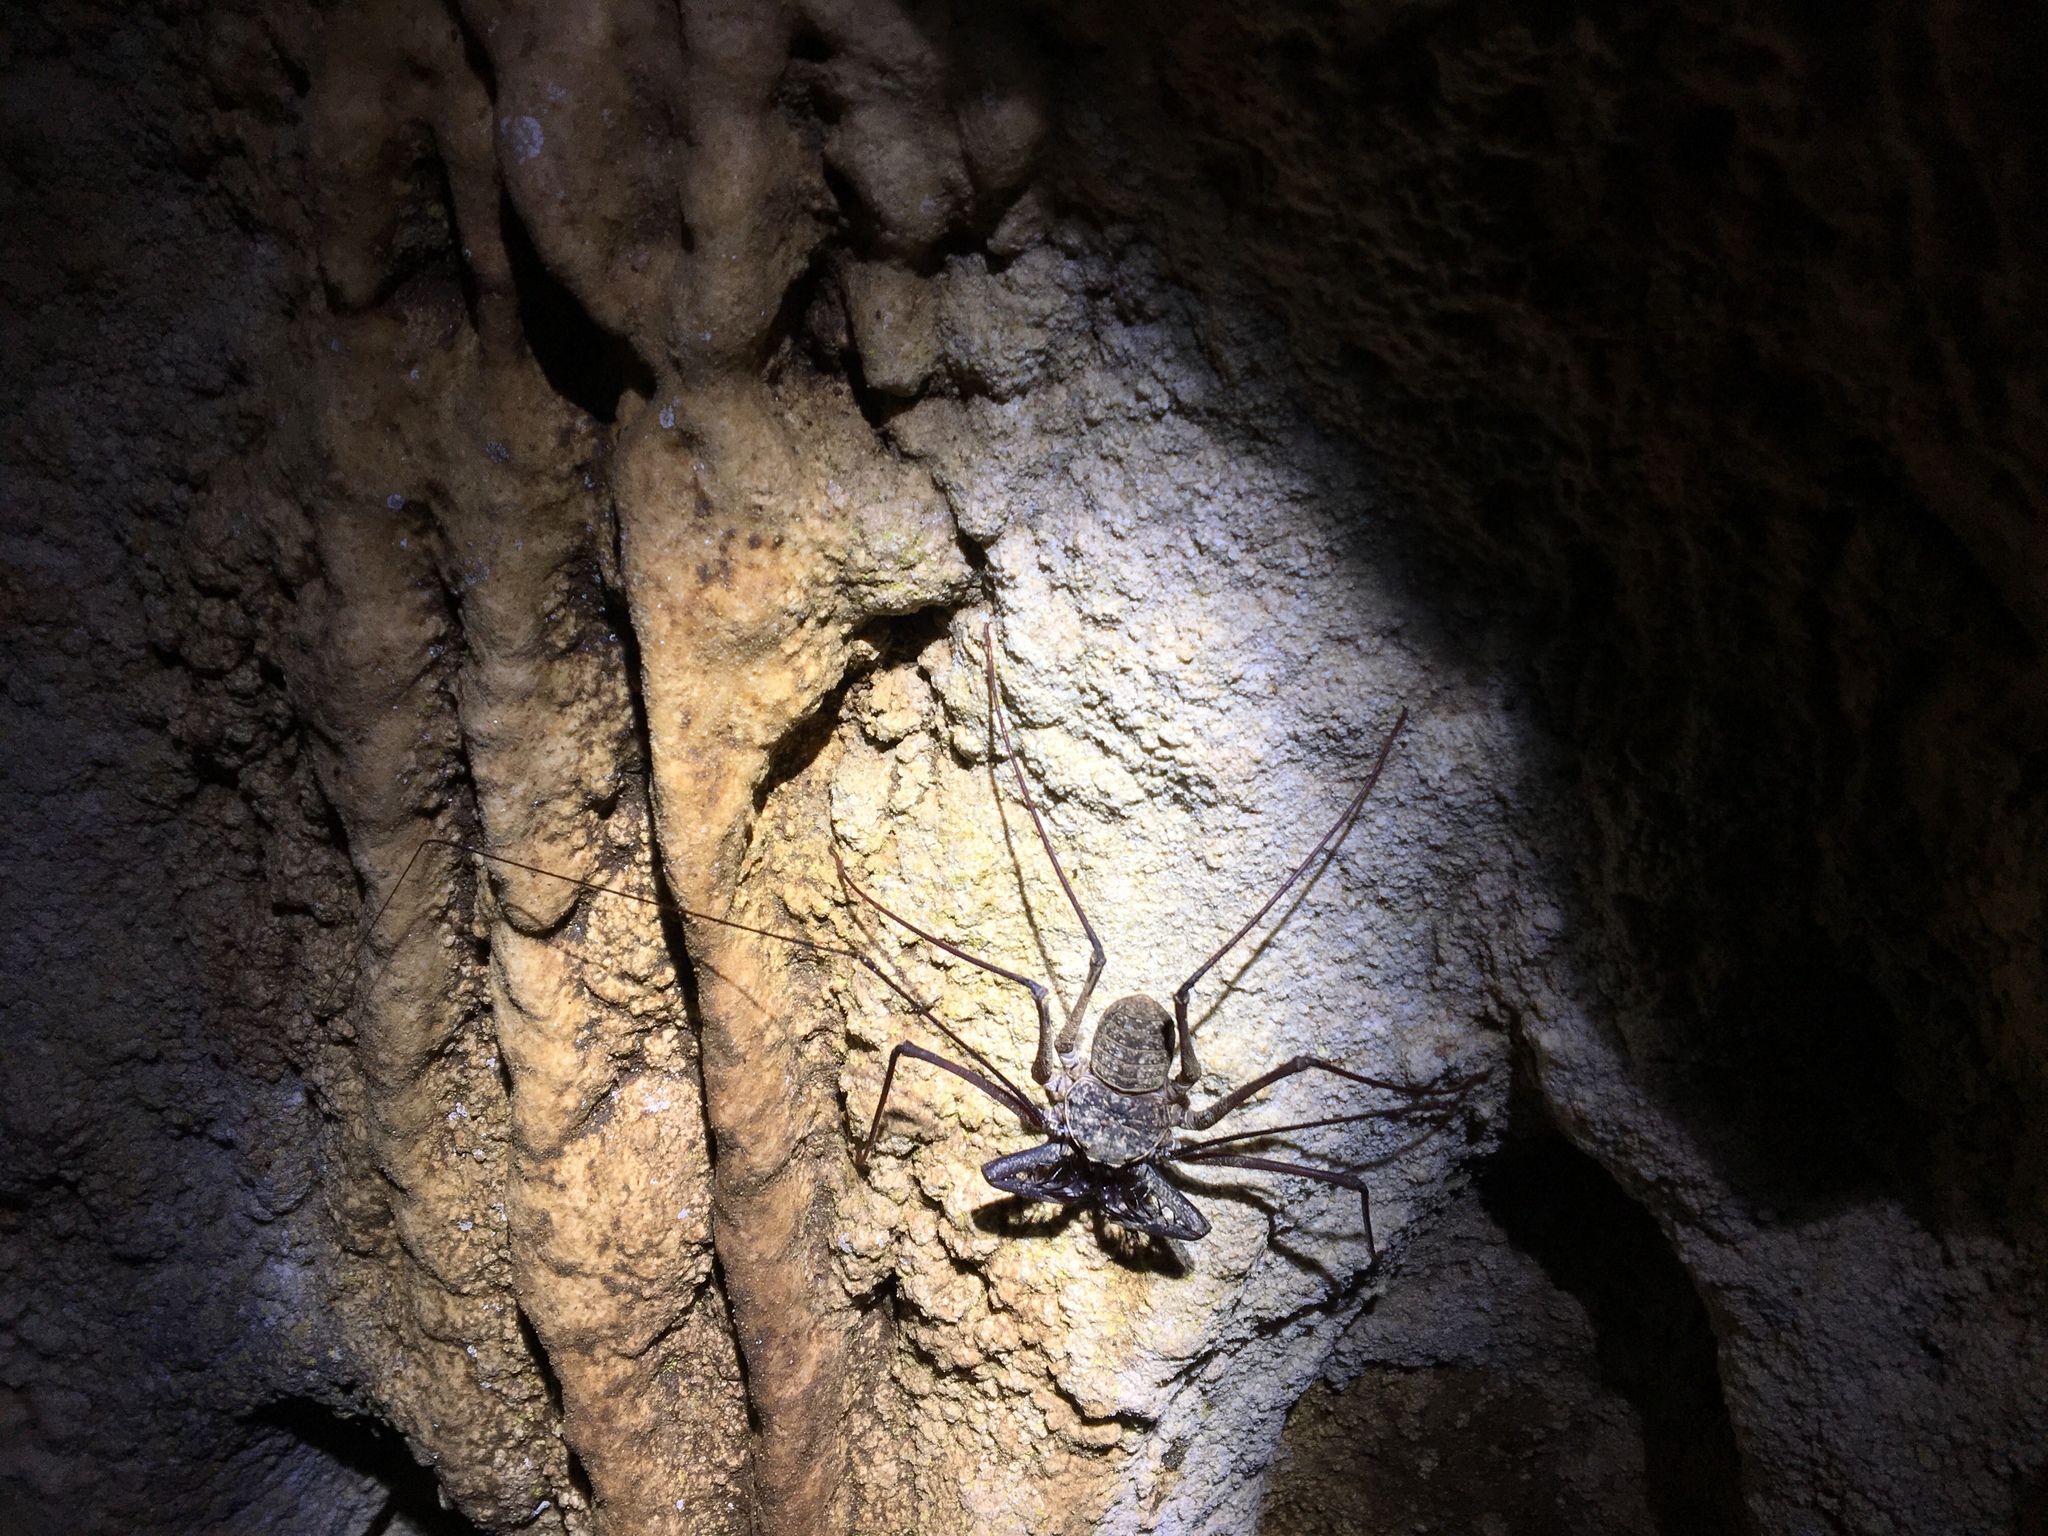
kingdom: Animalia
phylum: Arthropoda
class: Arachnida
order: Amblypygi
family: Phrynidae
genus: Phrynus
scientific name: Phrynus longipes
